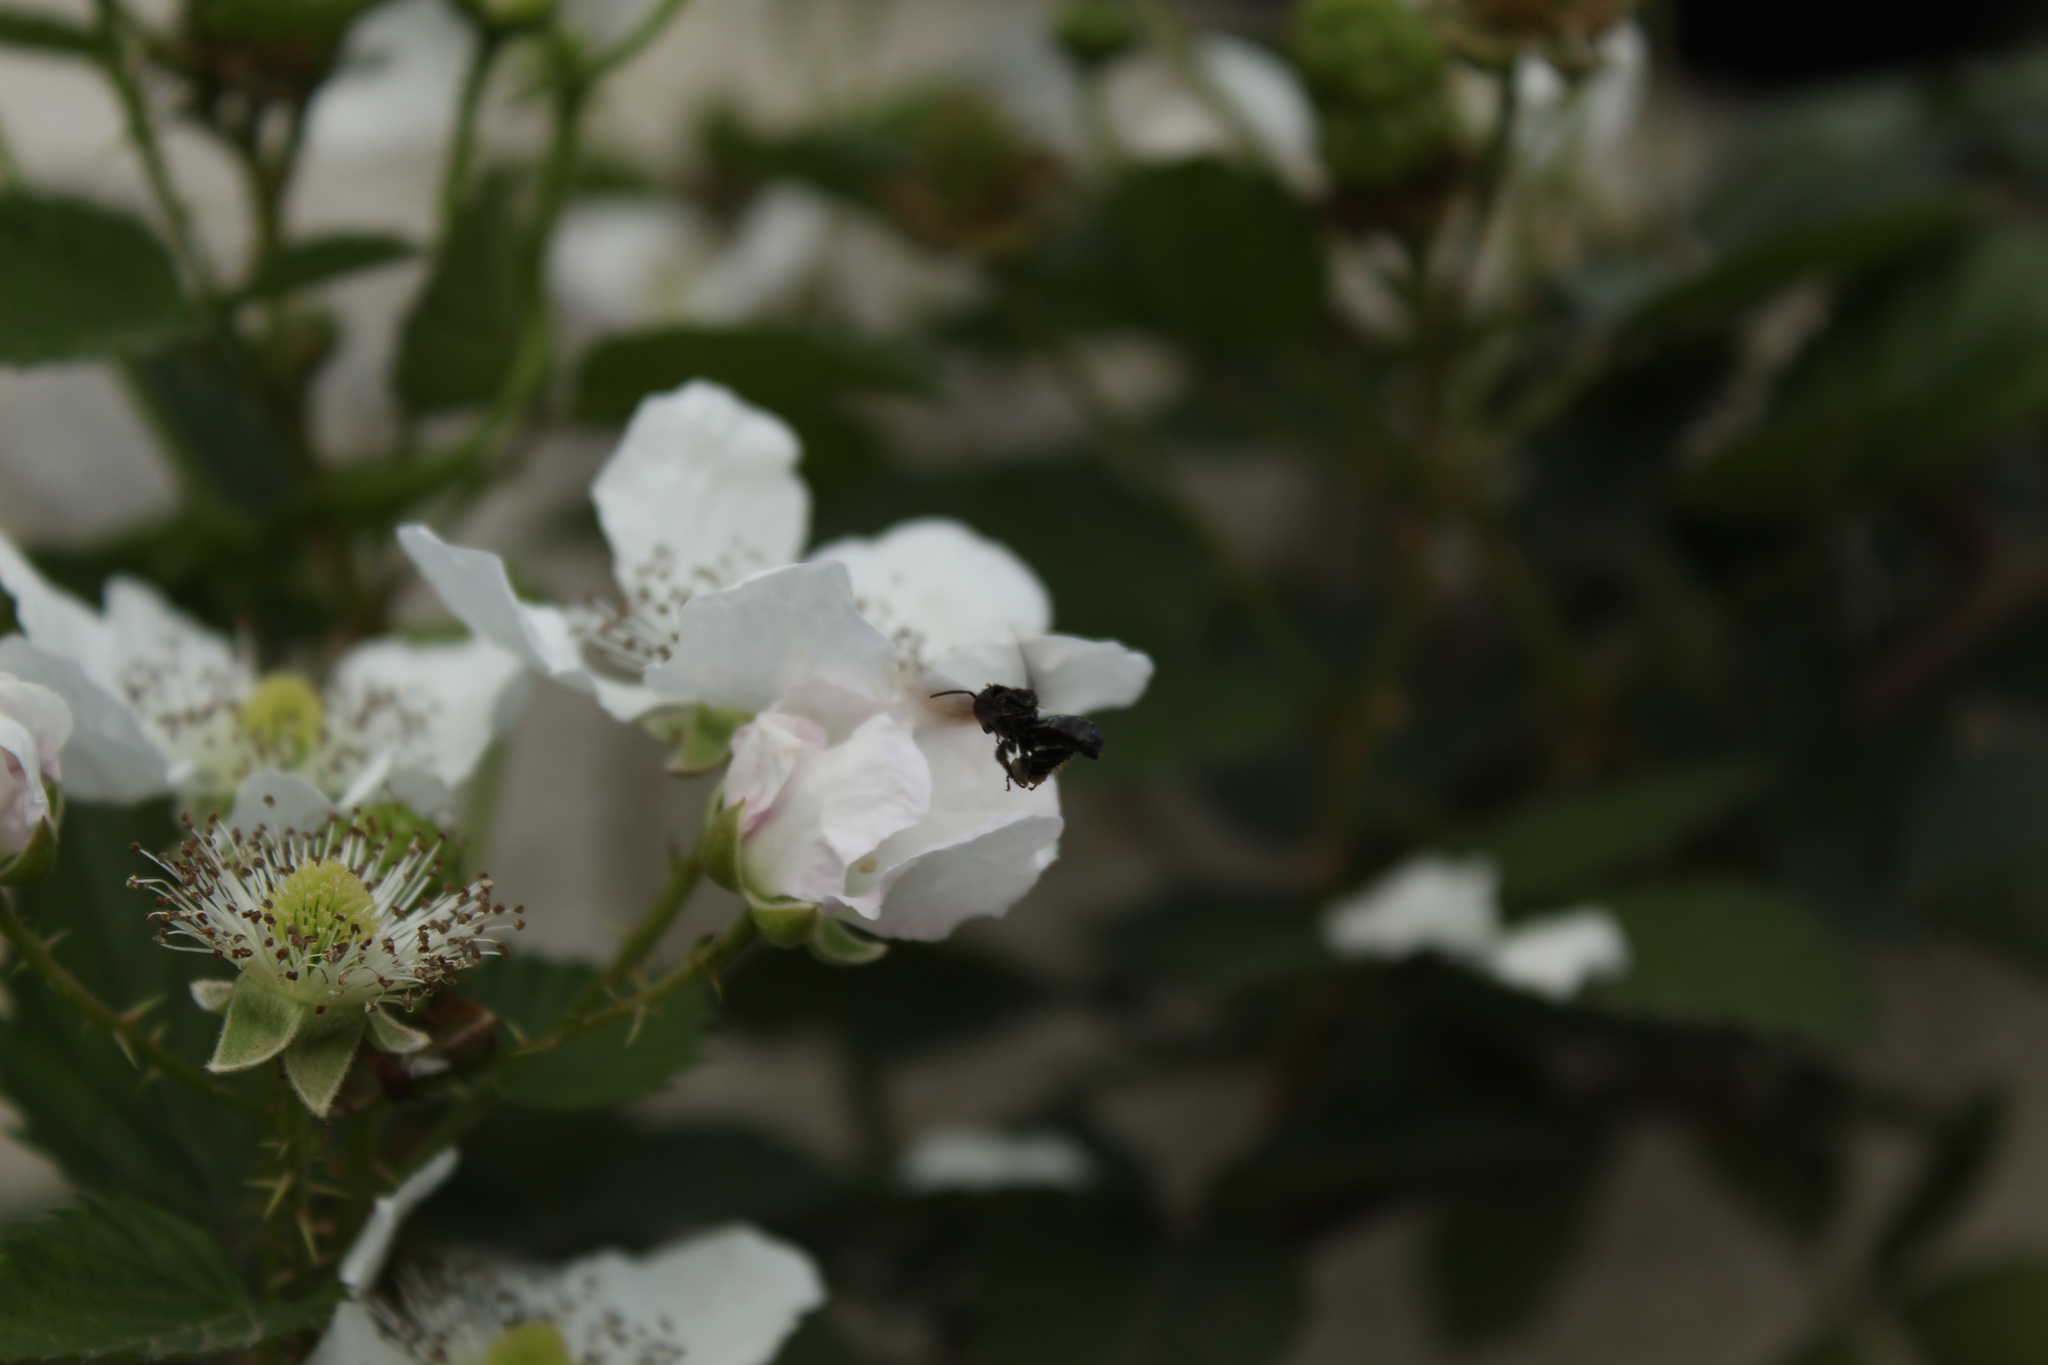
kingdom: Animalia
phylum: Arthropoda
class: Insecta
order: Hymenoptera
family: Apidae
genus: Frieseomelitta
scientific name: Frieseomelitta nigra
